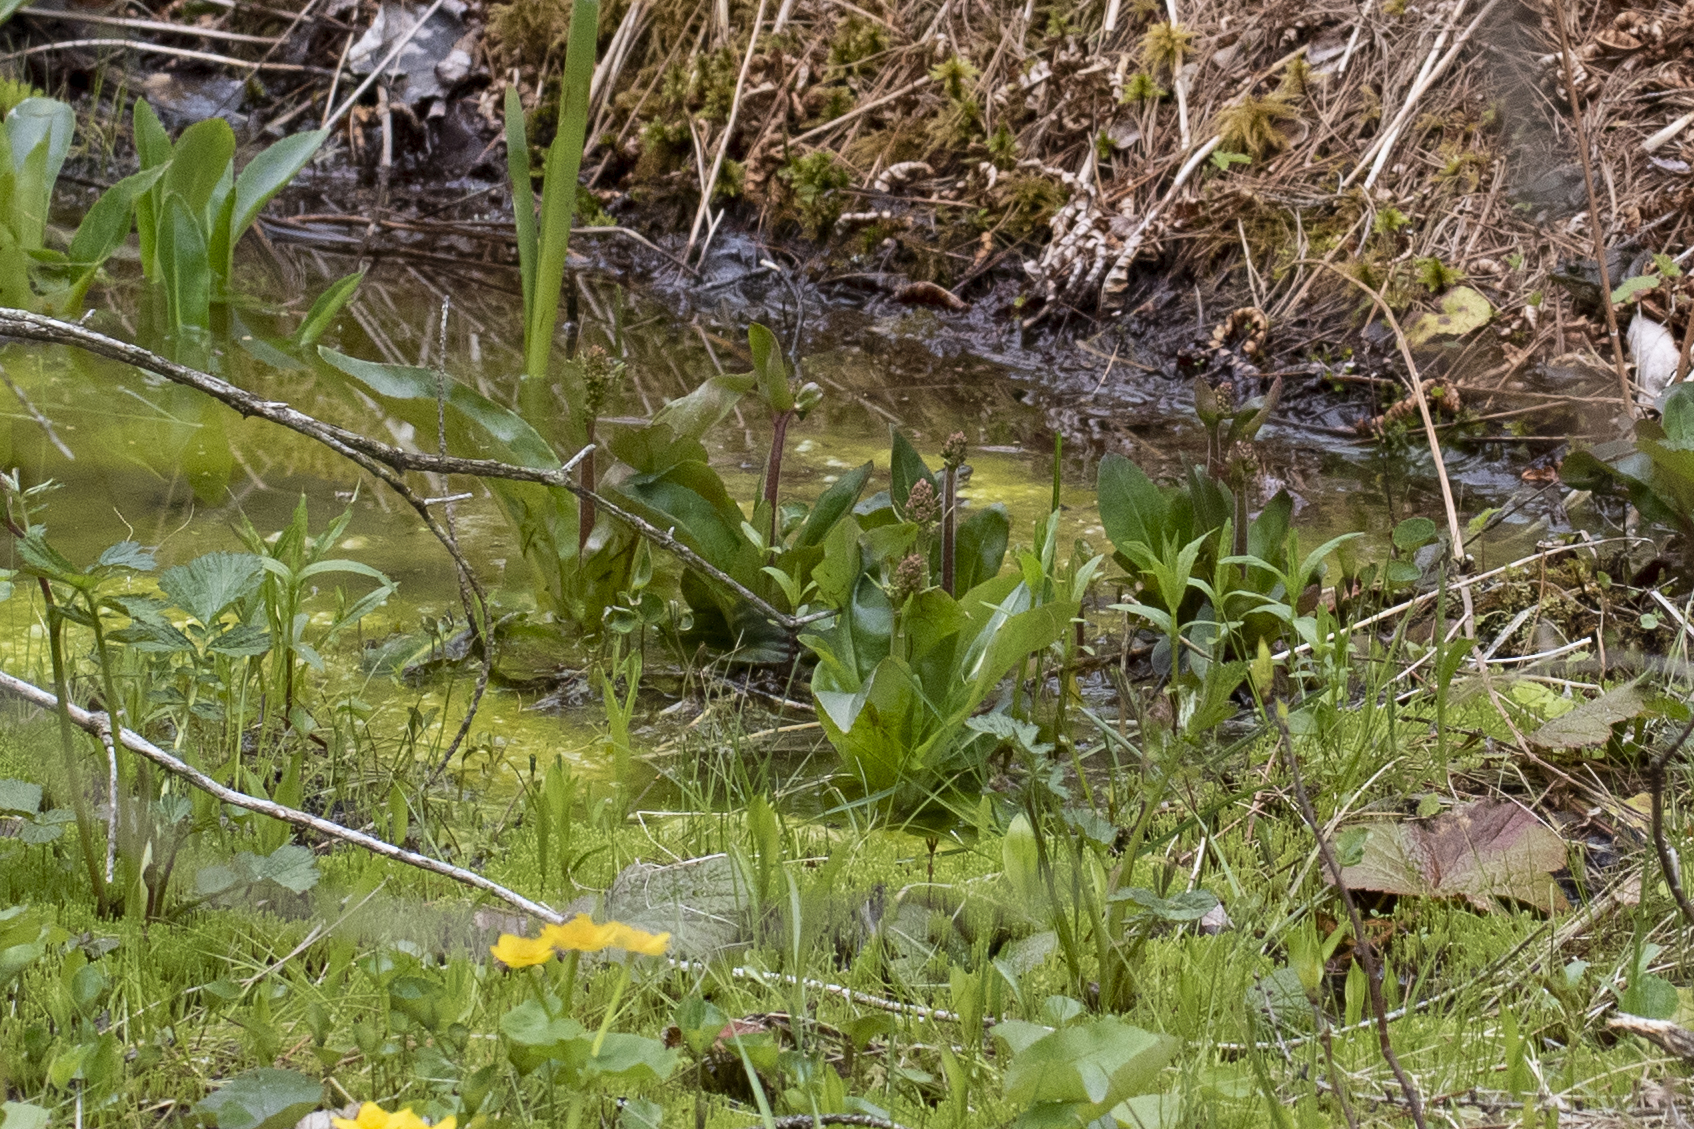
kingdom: Plantae
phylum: Tracheophyta
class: Magnoliopsida
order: Saxifragales
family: Saxifragaceae
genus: Micranthes
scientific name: Micranthes pensylvanica
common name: Marsh saxifrage
